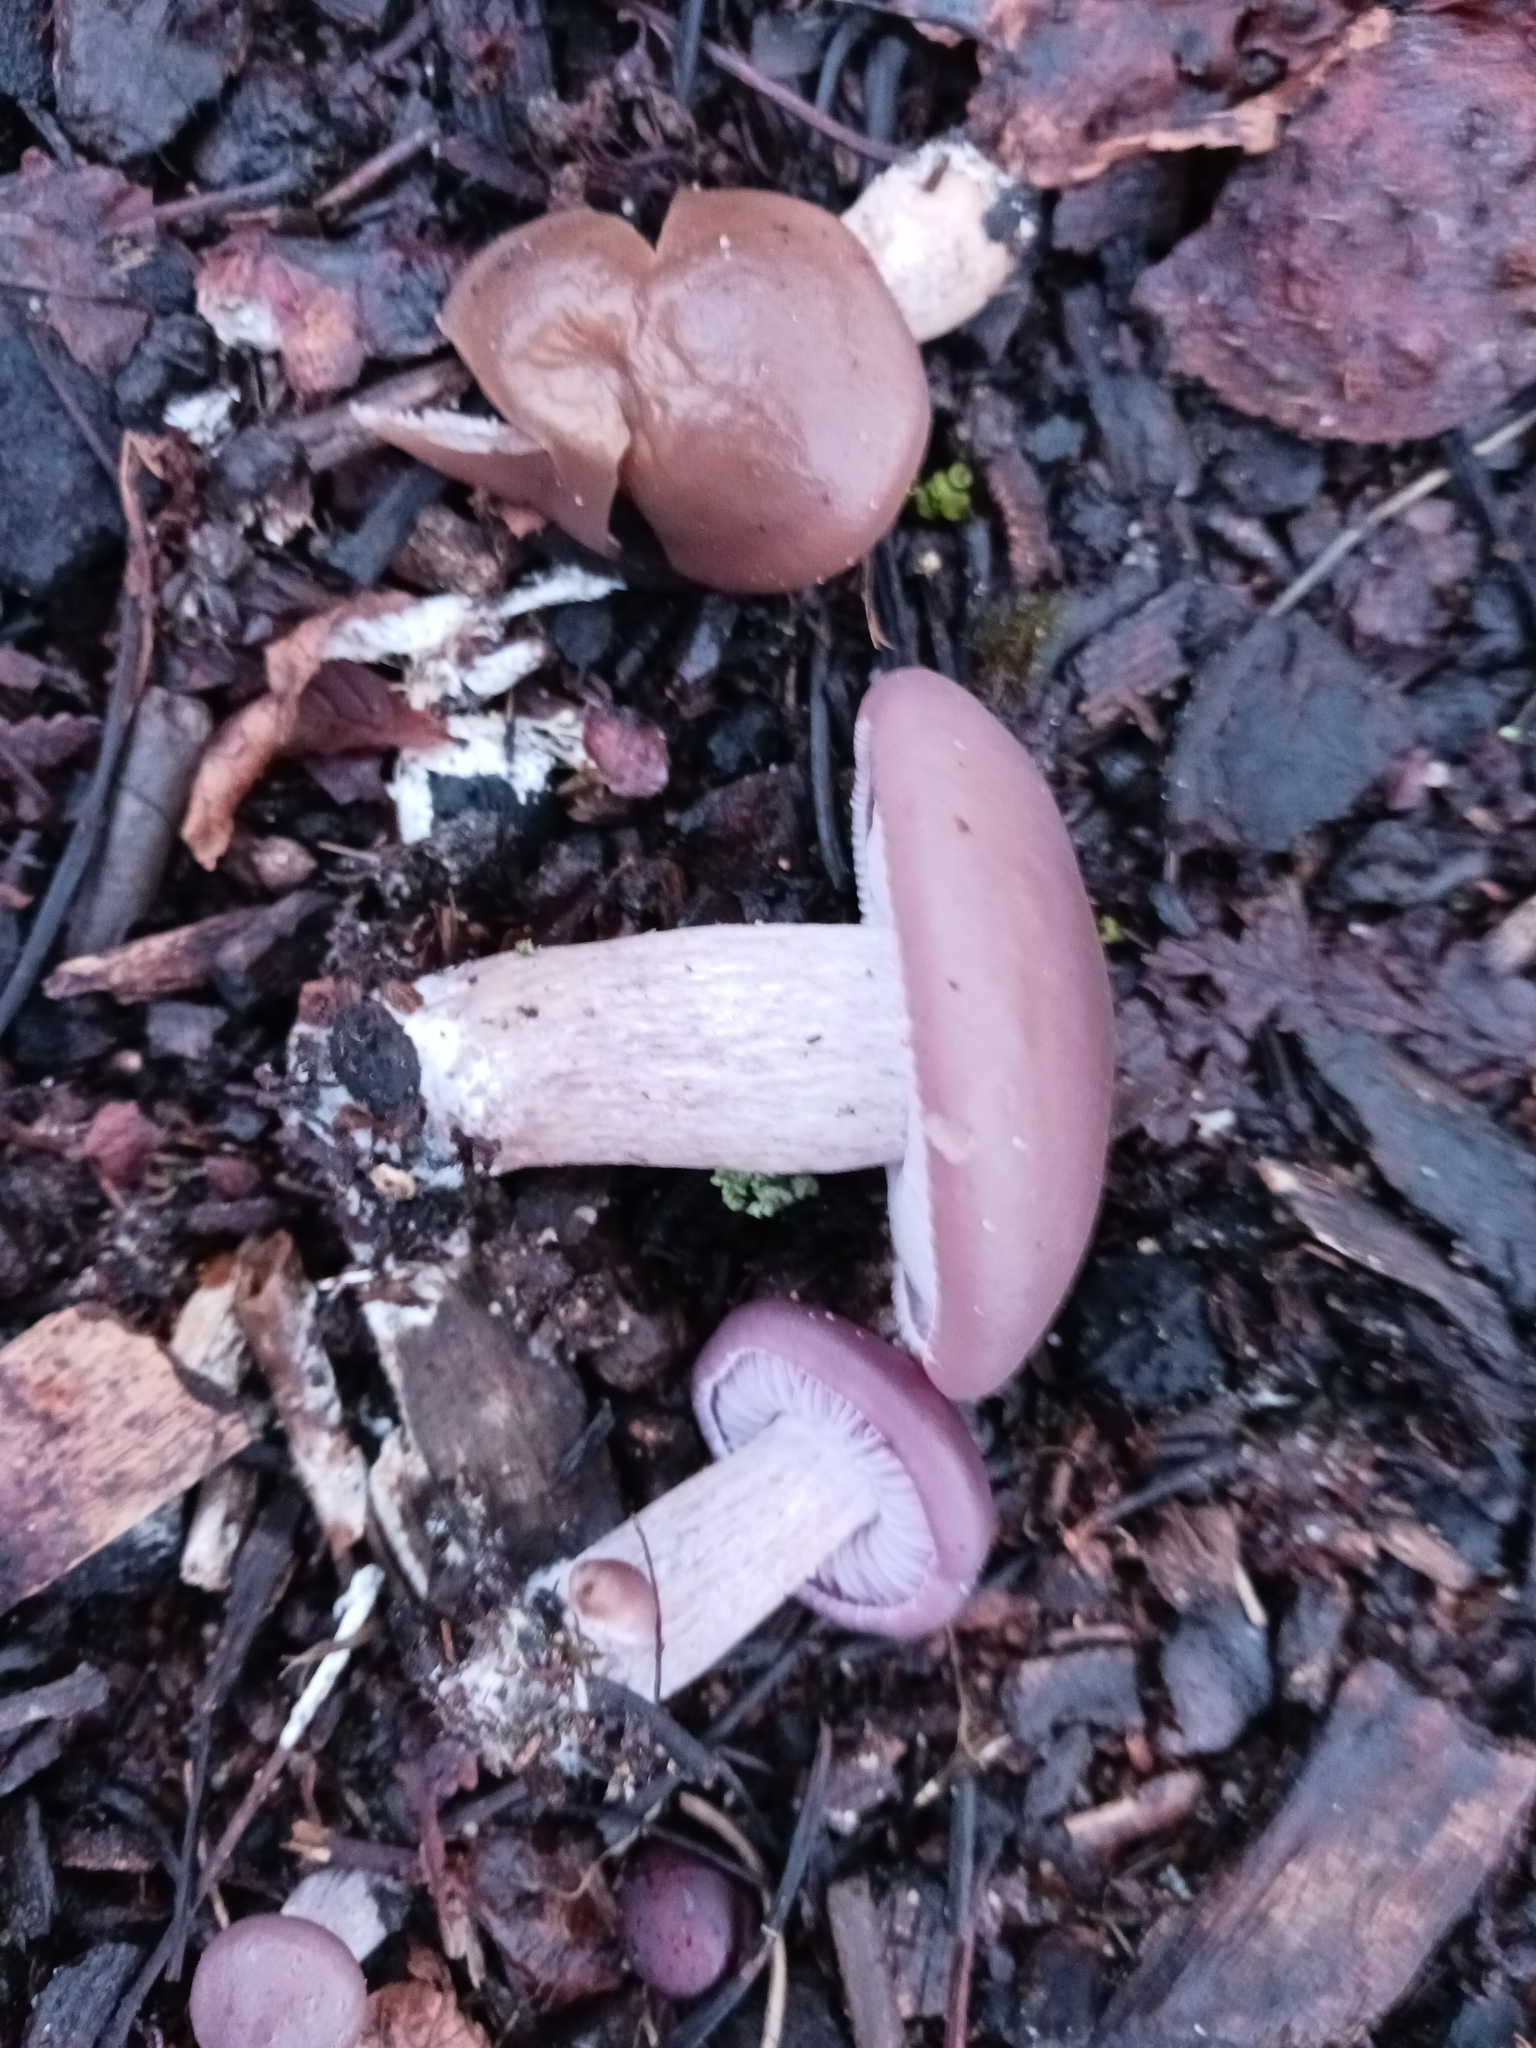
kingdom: Fungi
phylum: Basidiomycota
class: Agaricomycetes
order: Agaricales
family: Tricholomataceae
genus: Collybia
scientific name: Collybia
